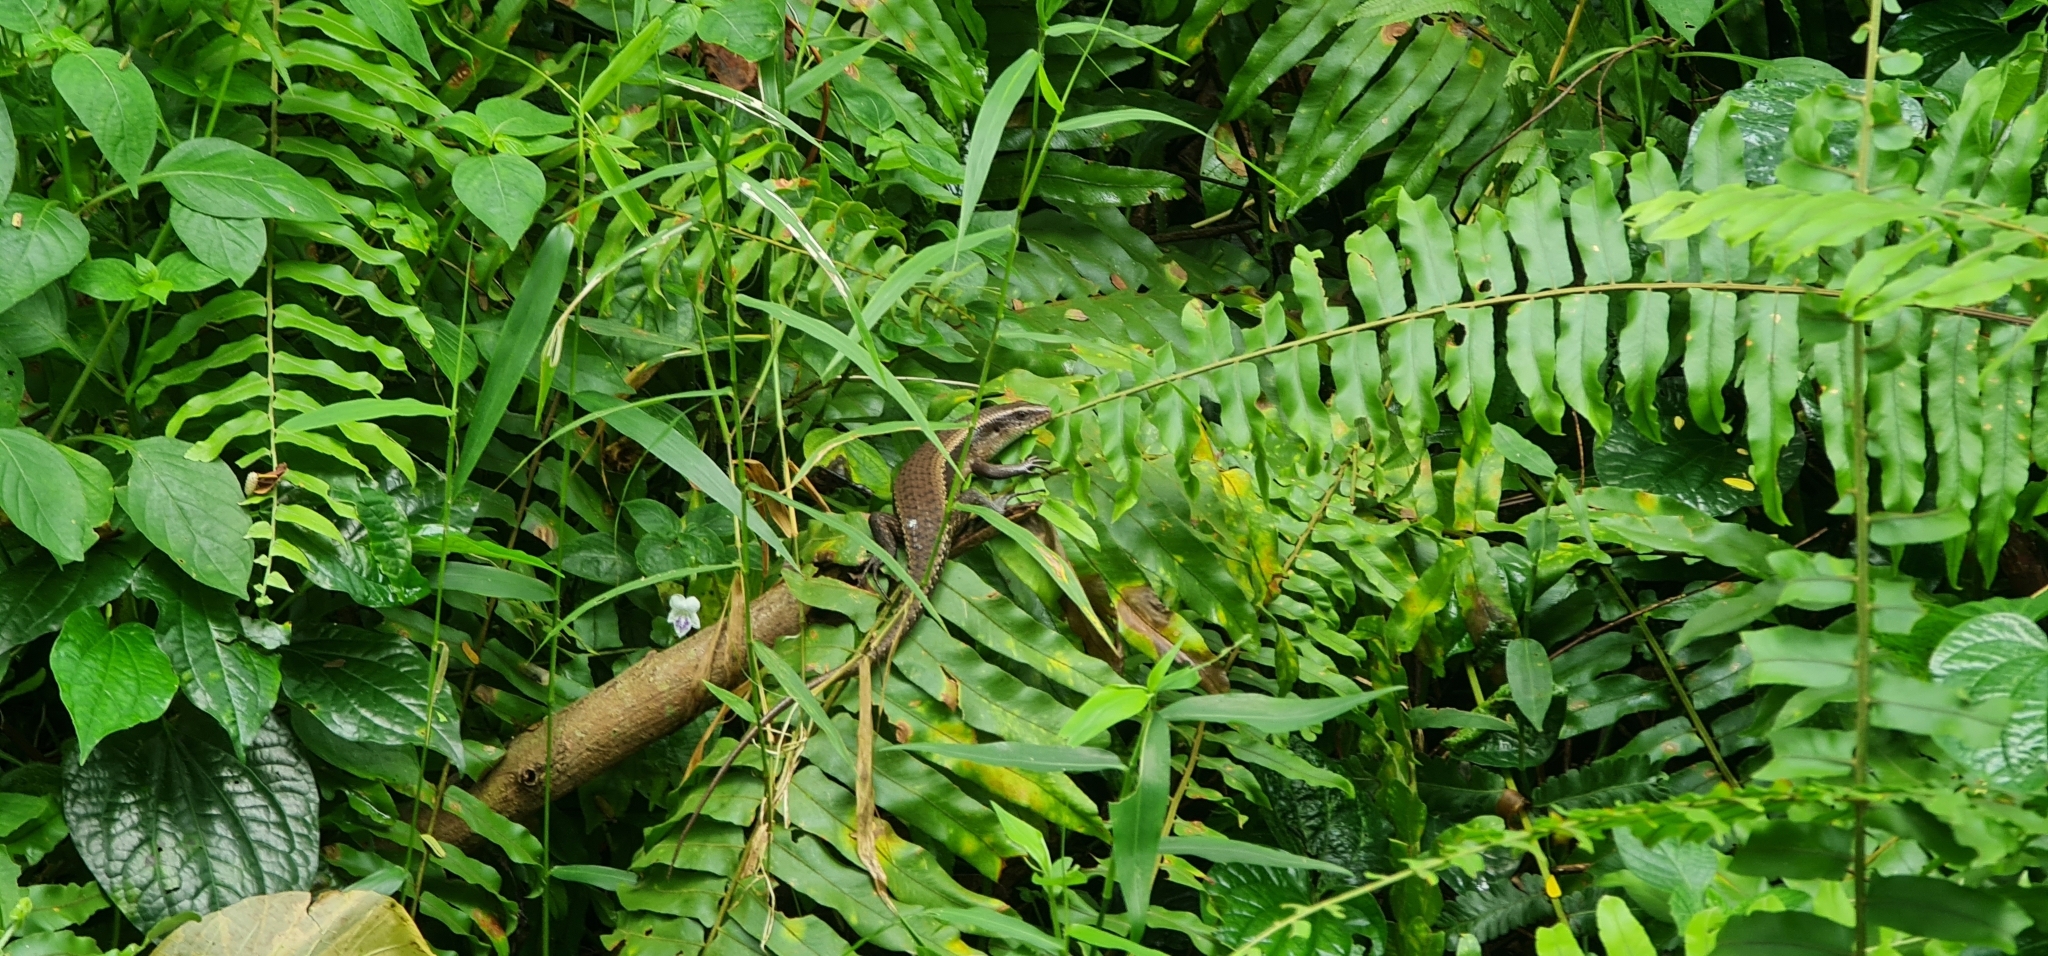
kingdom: Animalia
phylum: Chordata
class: Squamata
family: Scincidae
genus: Eutropis
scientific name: Eutropis multifasciata
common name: Common mabuya
